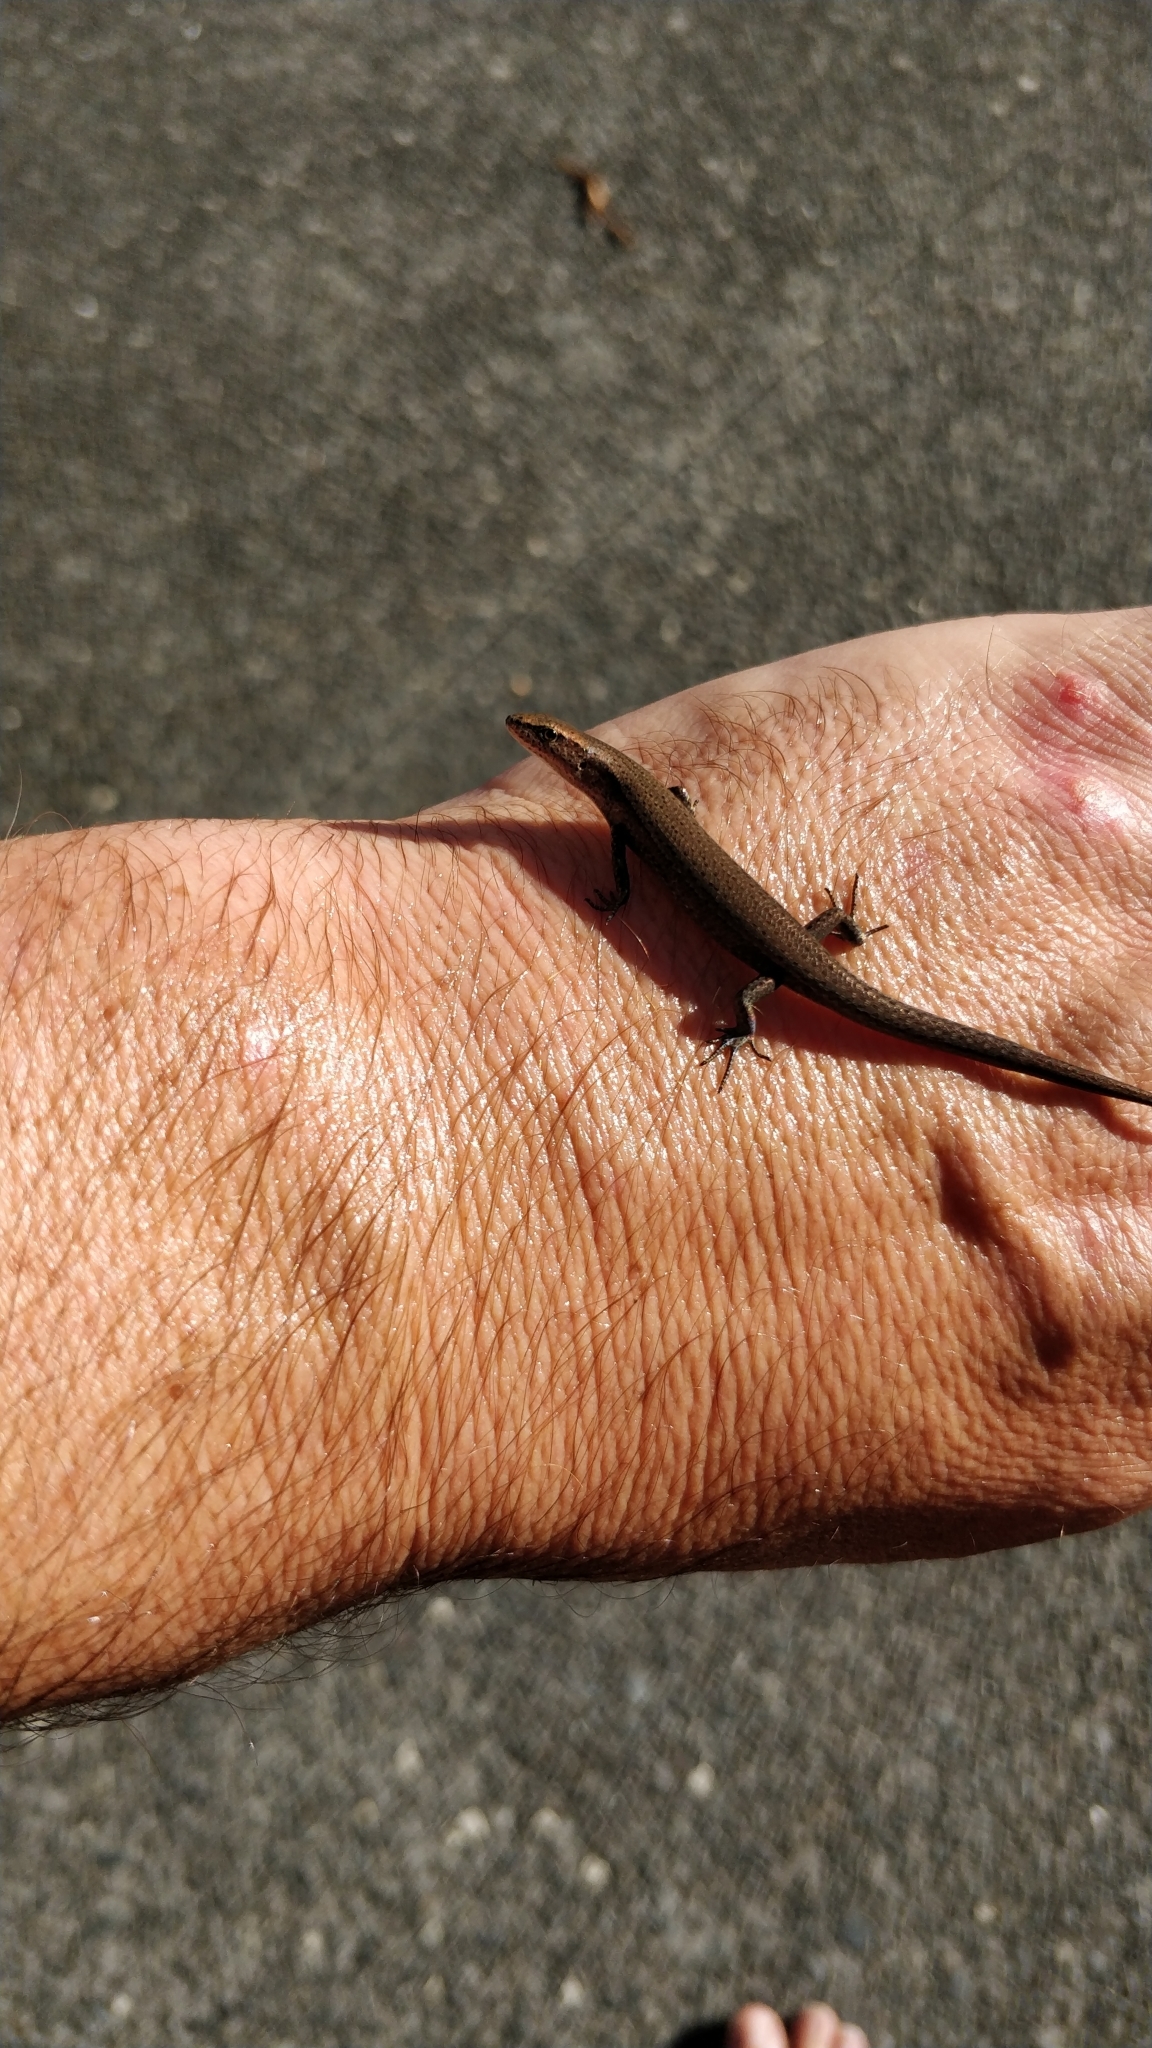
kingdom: Animalia
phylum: Chordata
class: Squamata
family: Scincidae
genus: Lampropholis
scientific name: Lampropholis delicata
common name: Plague skink
